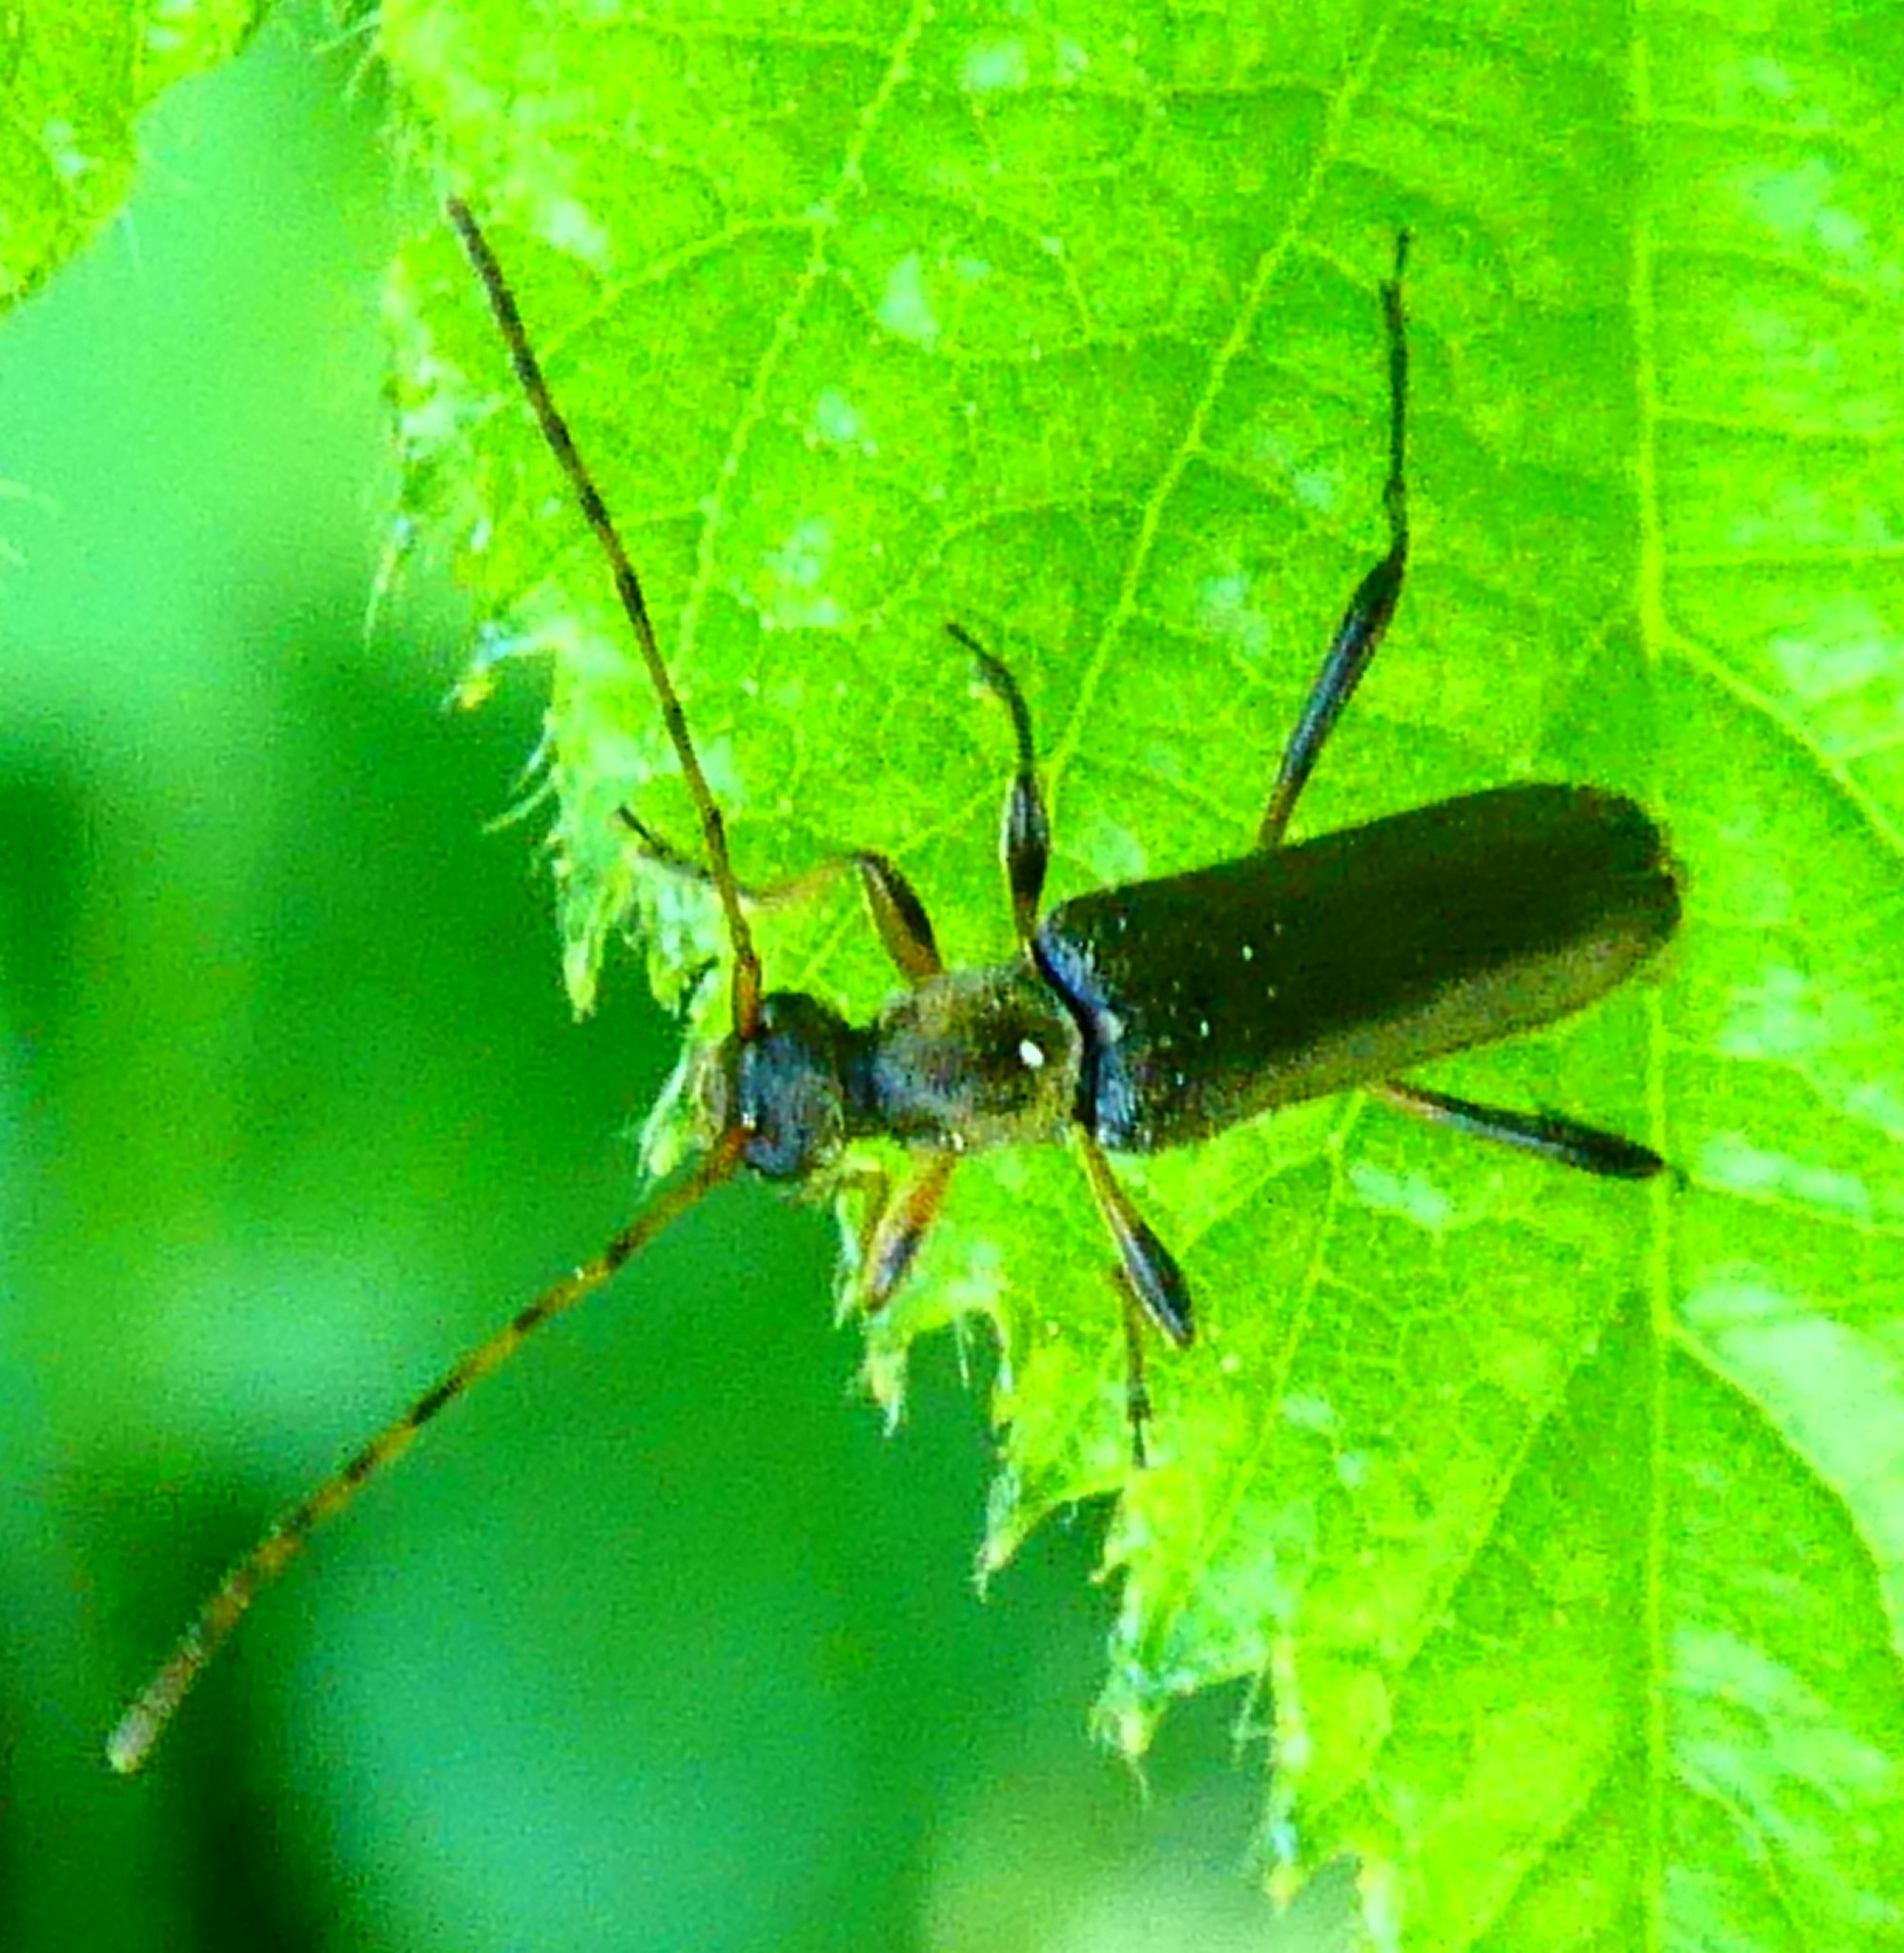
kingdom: Animalia
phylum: Arthropoda
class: Insecta
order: Coleoptera
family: Cerambycidae
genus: Grammoptera
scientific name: Grammoptera ruficornis
